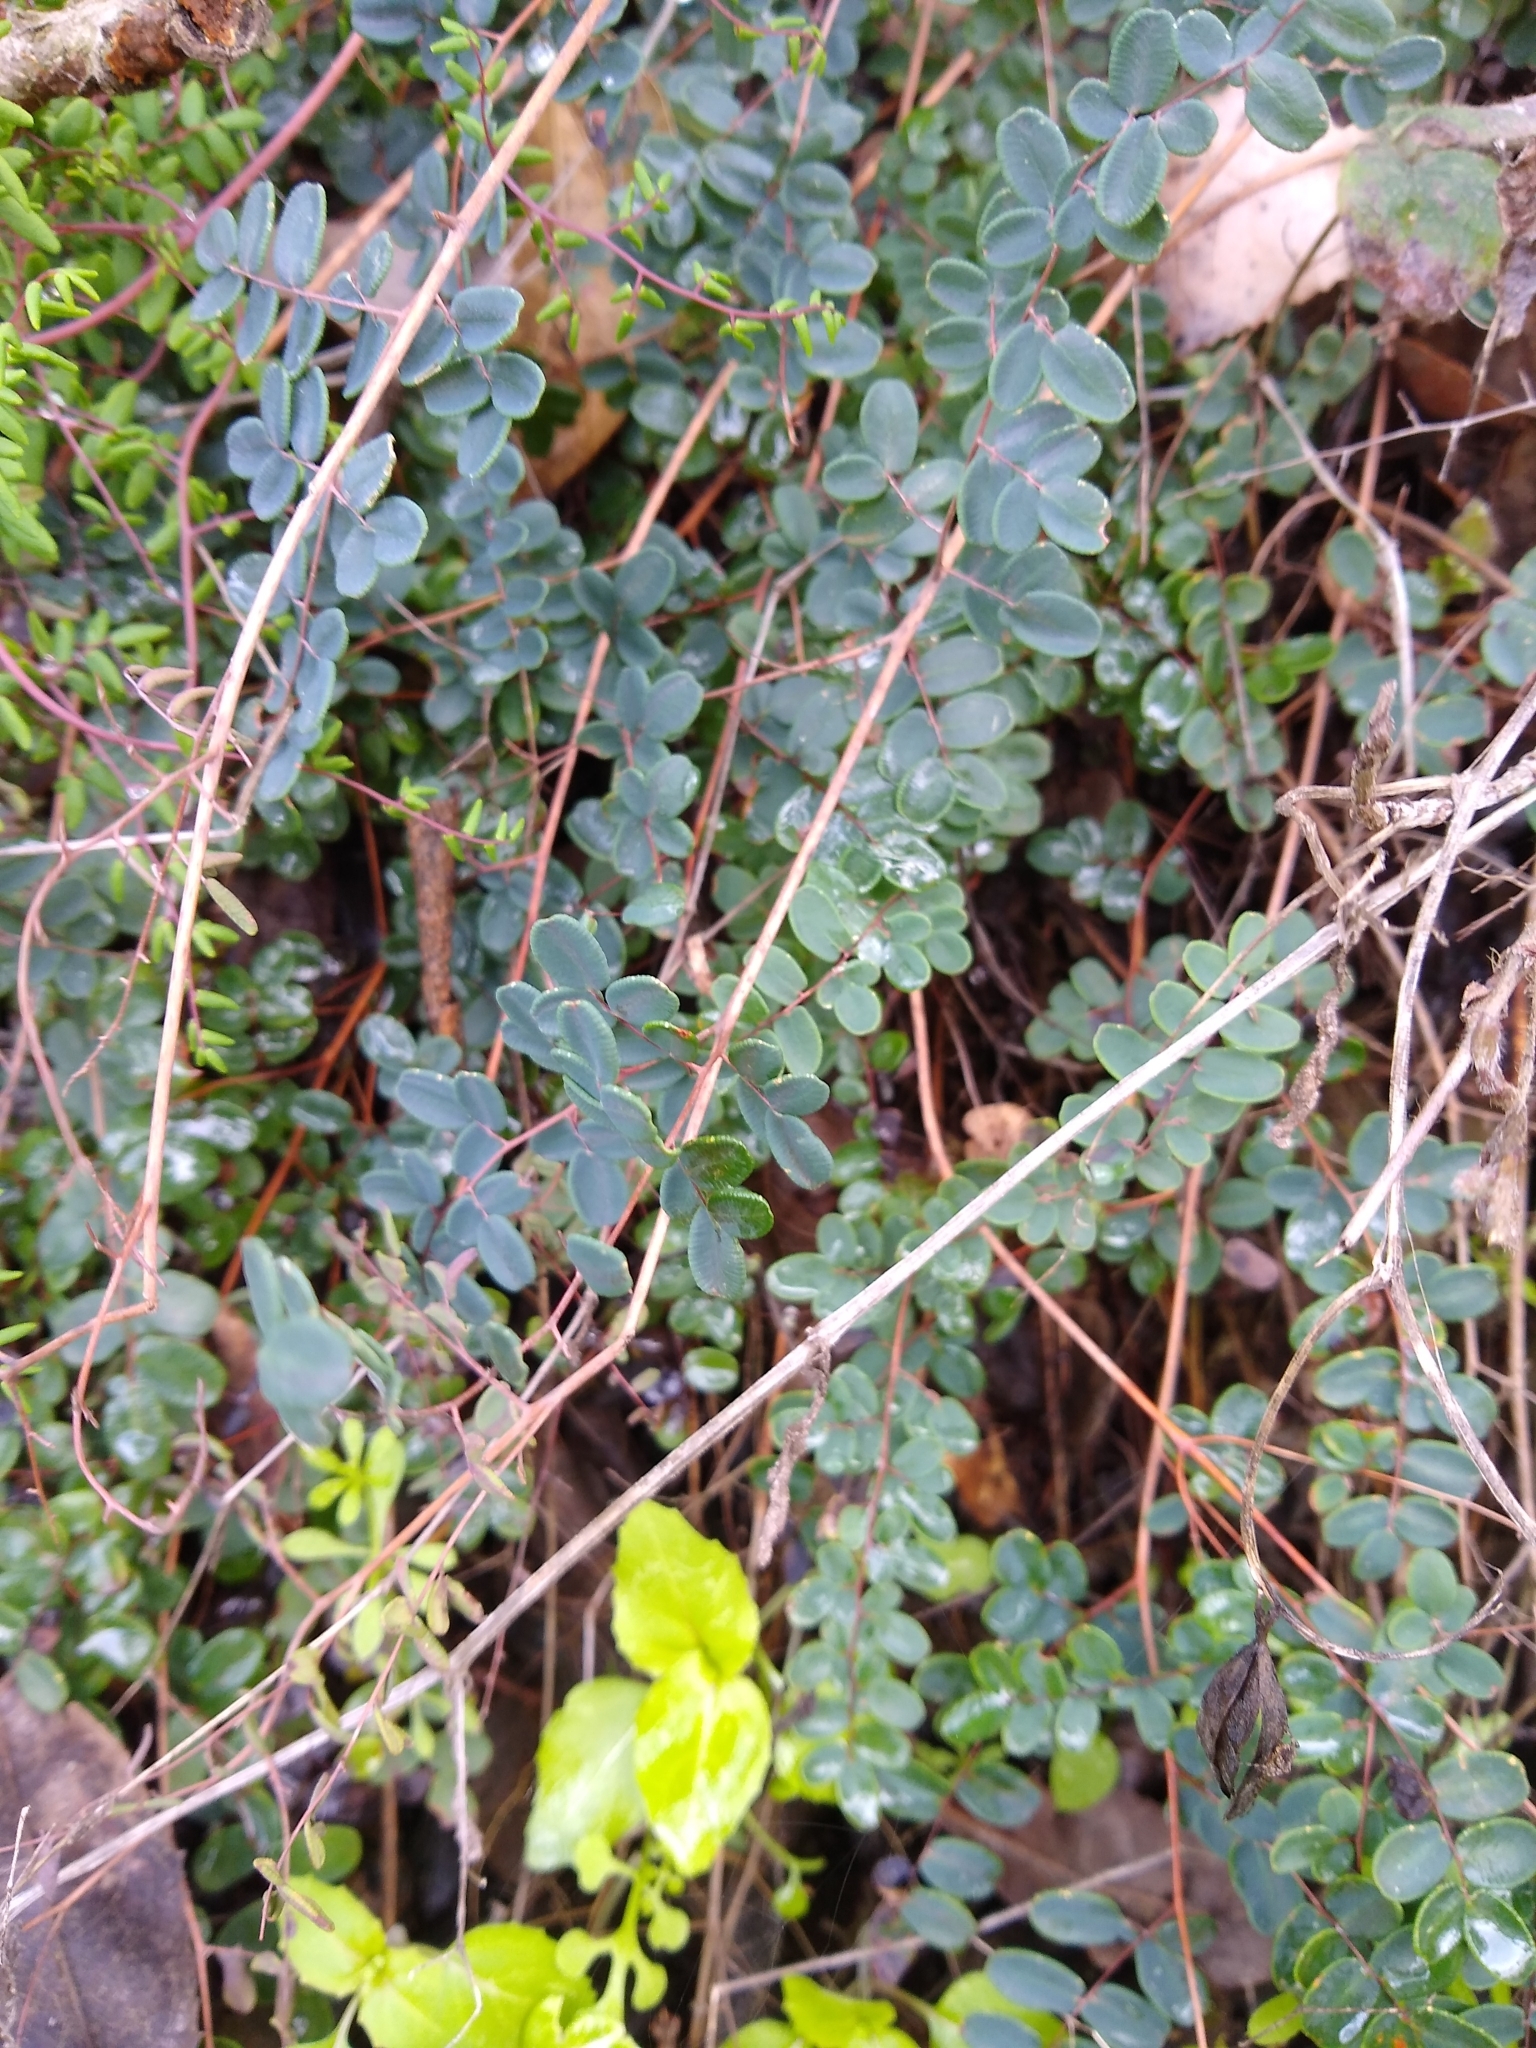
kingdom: Plantae
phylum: Tracheophyta
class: Polypodiopsida
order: Polypodiales
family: Pteridaceae
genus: Pellaea
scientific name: Pellaea andromedifolia
